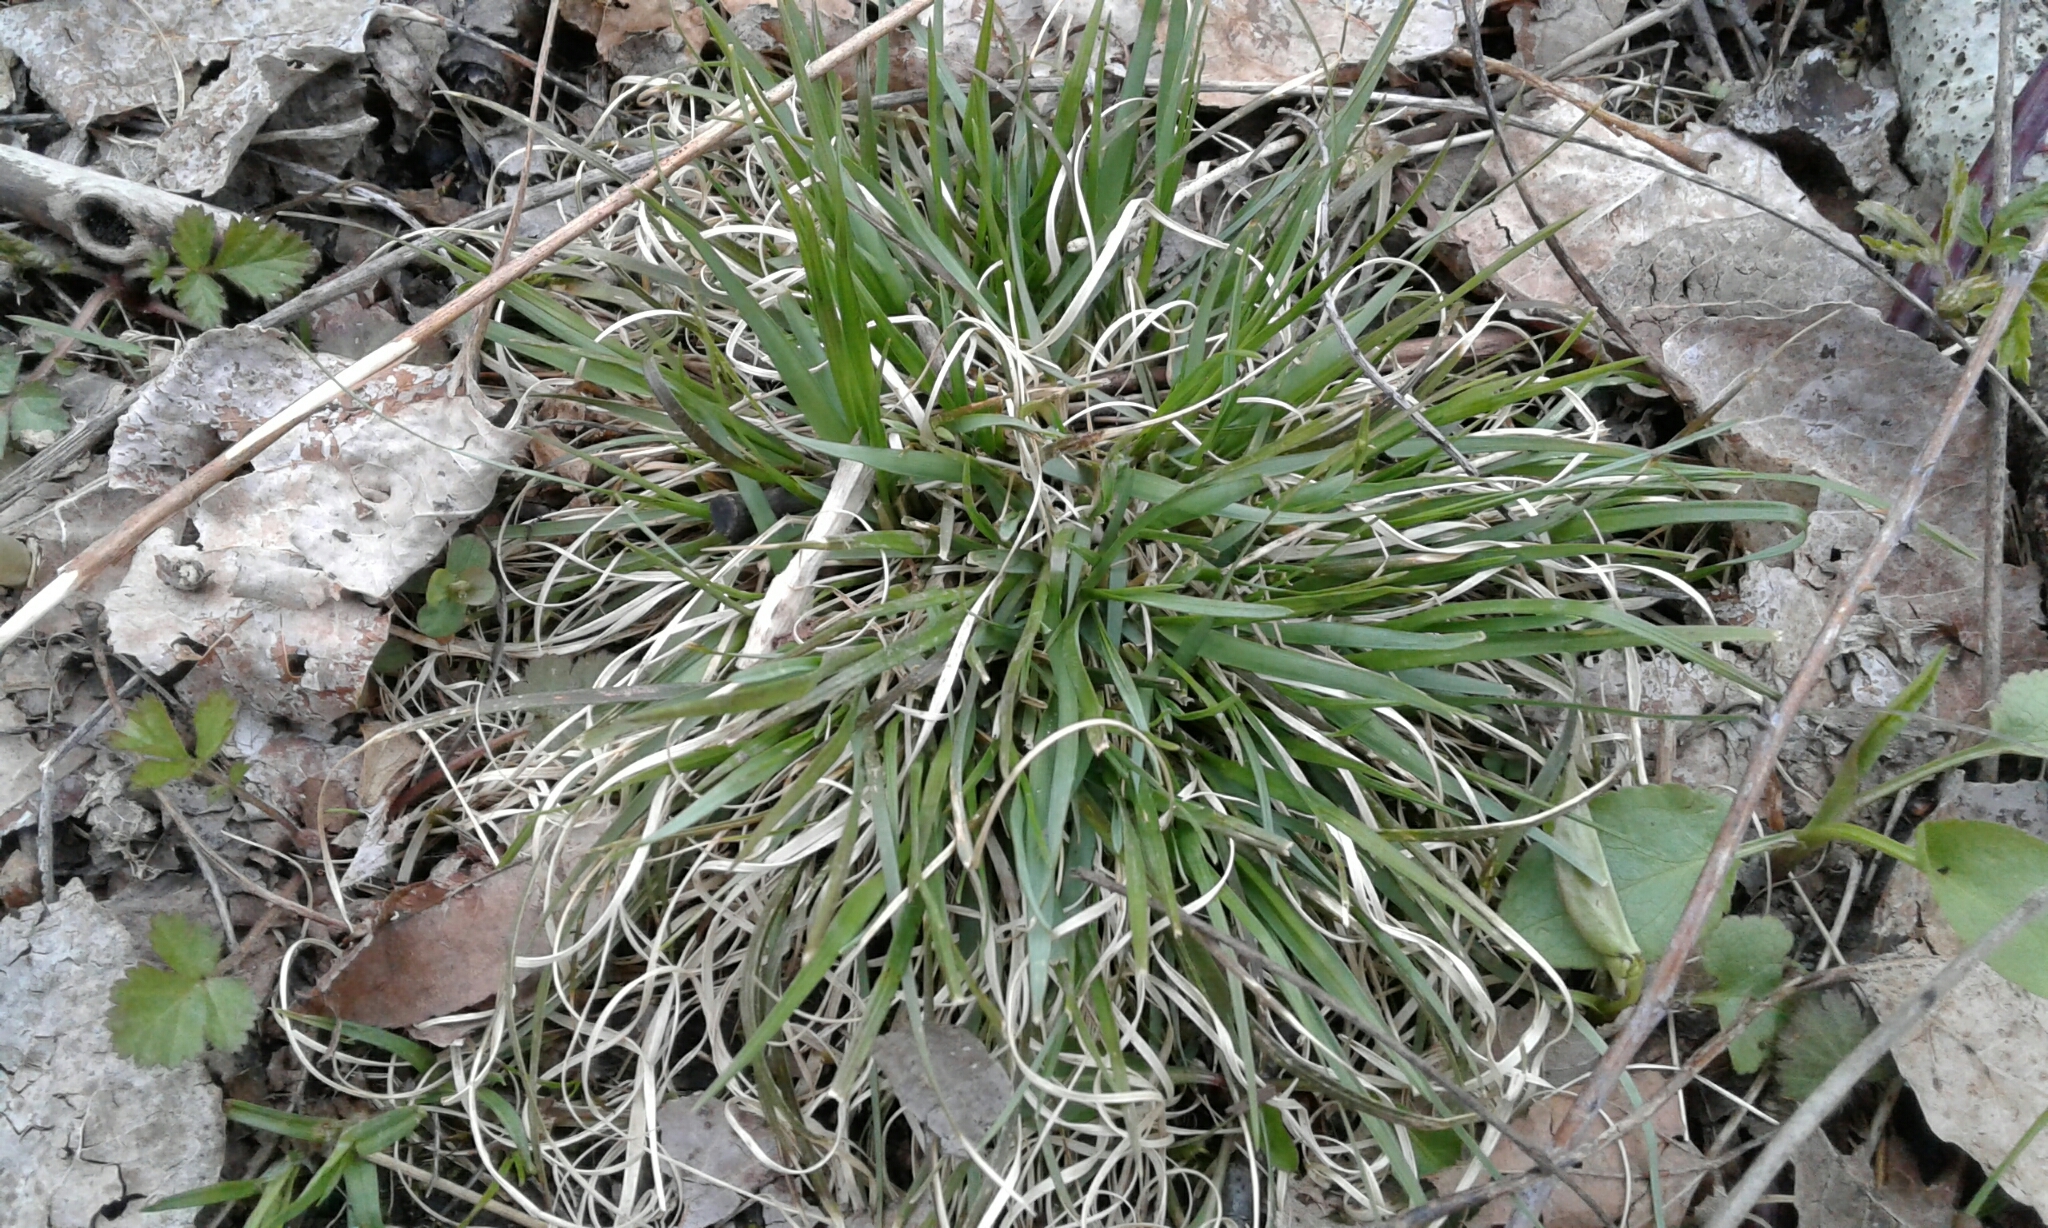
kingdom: Plantae
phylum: Tracheophyta
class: Liliopsida
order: Poales
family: Poaceae
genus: Danthonia
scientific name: Danthonia spicata
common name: Common wild oatgrass
